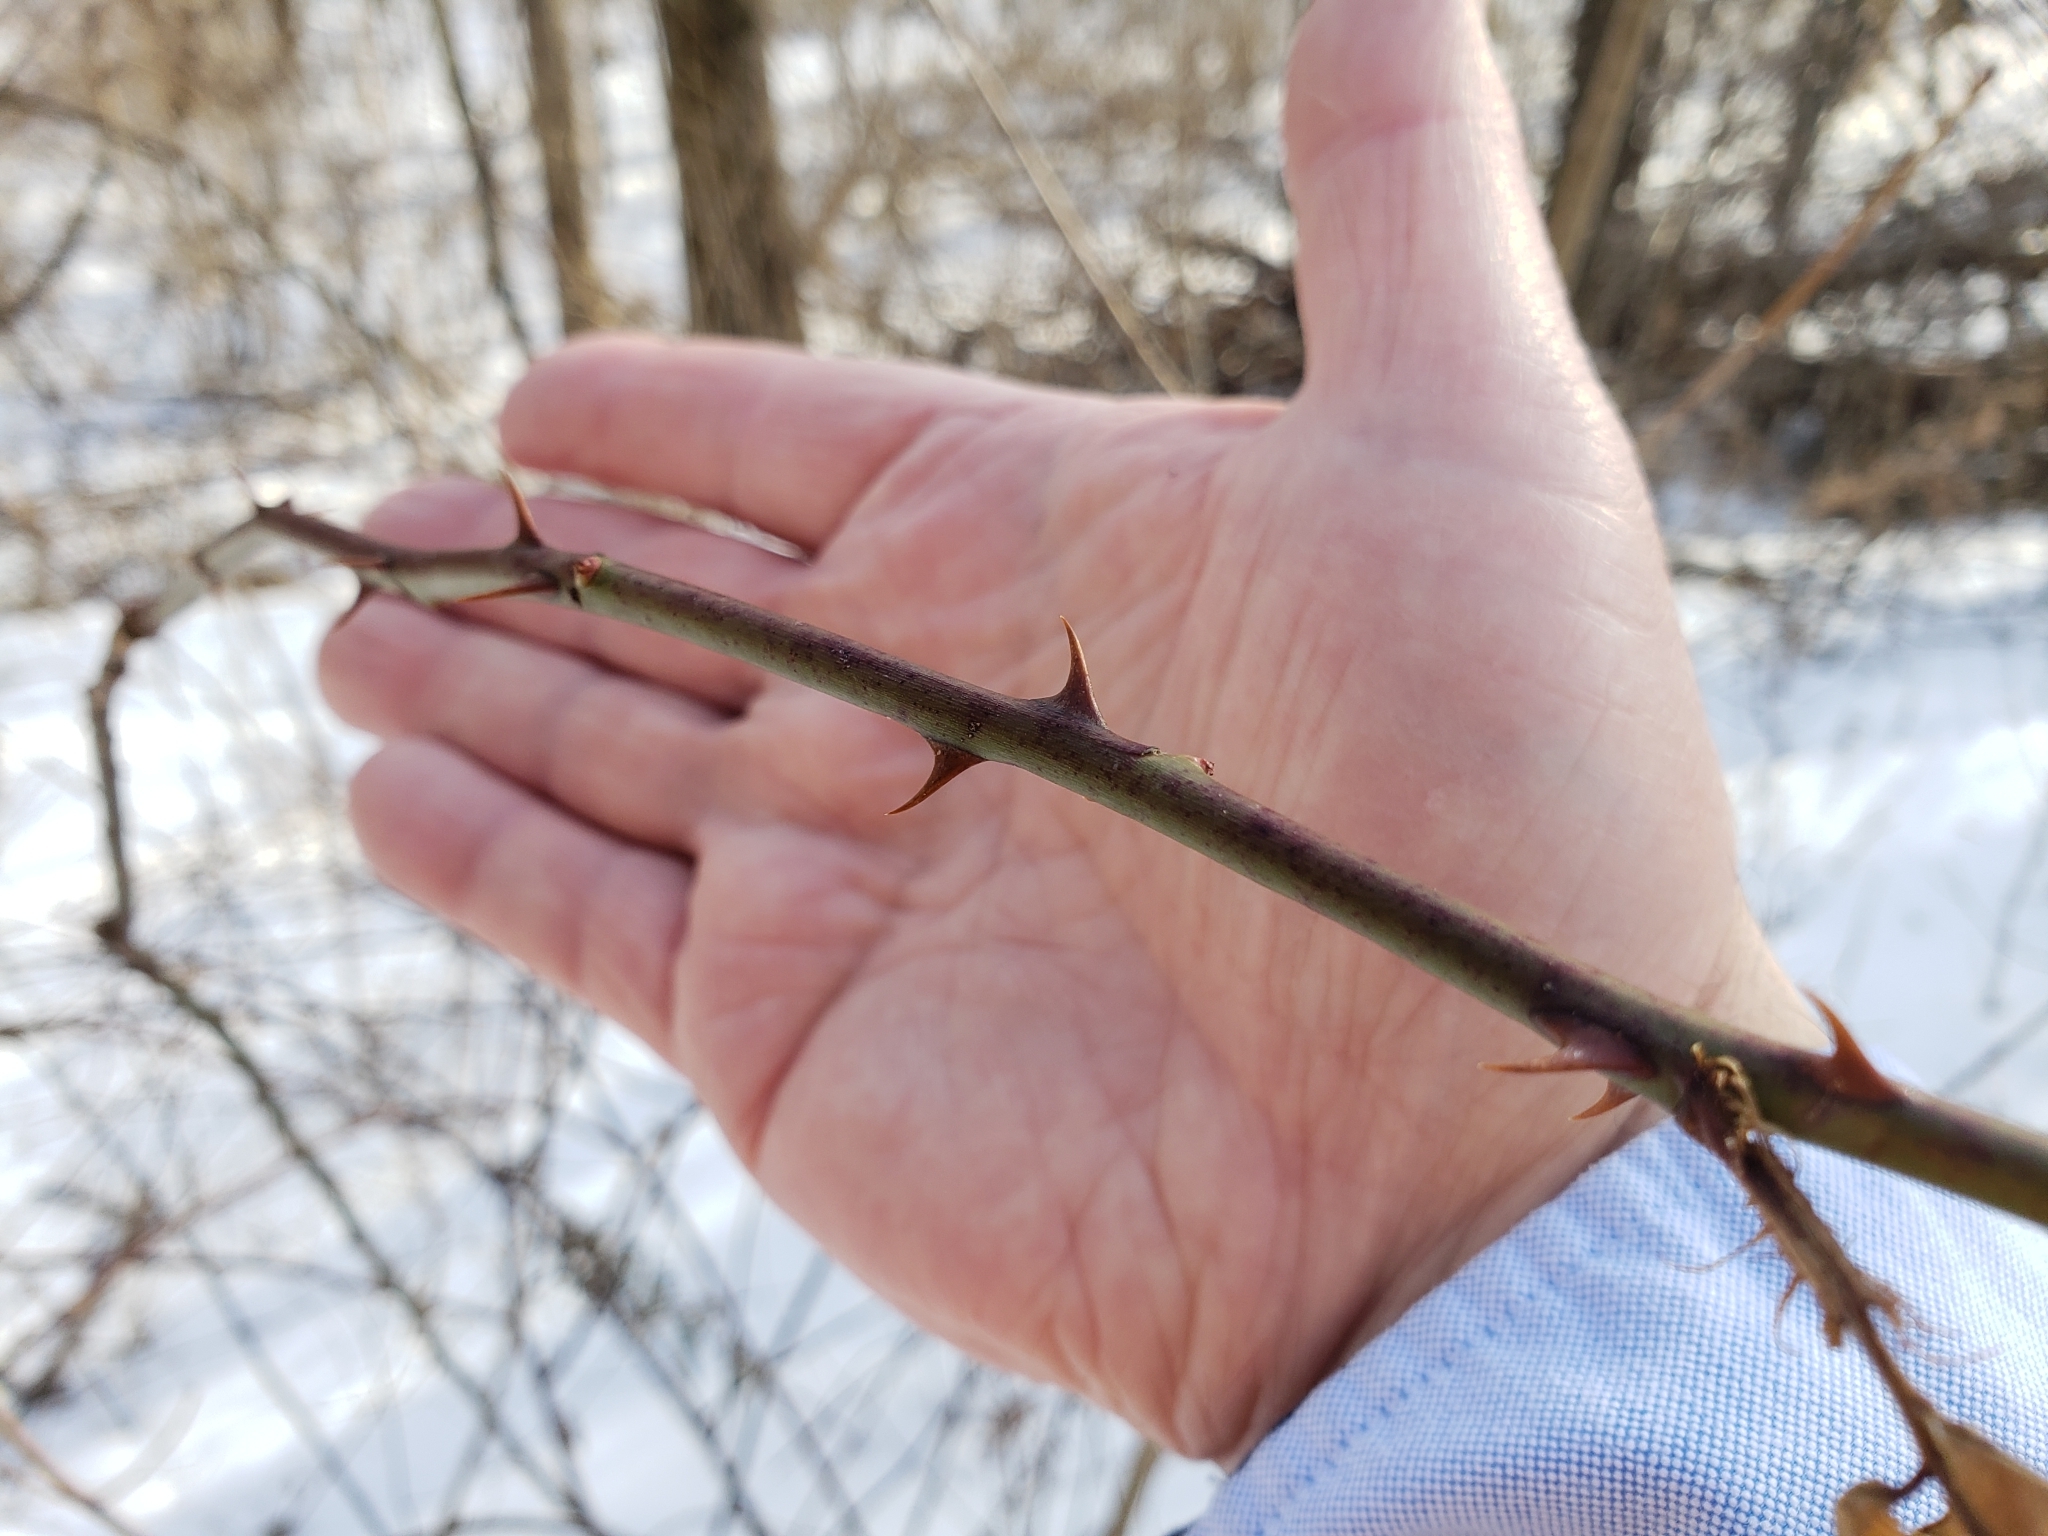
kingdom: Plantae
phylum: Tracheophyta
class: Magnoliopsida
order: Rosales
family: Rosaceae
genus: Rosa
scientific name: Rosa multiflora
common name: Multiflora rose
